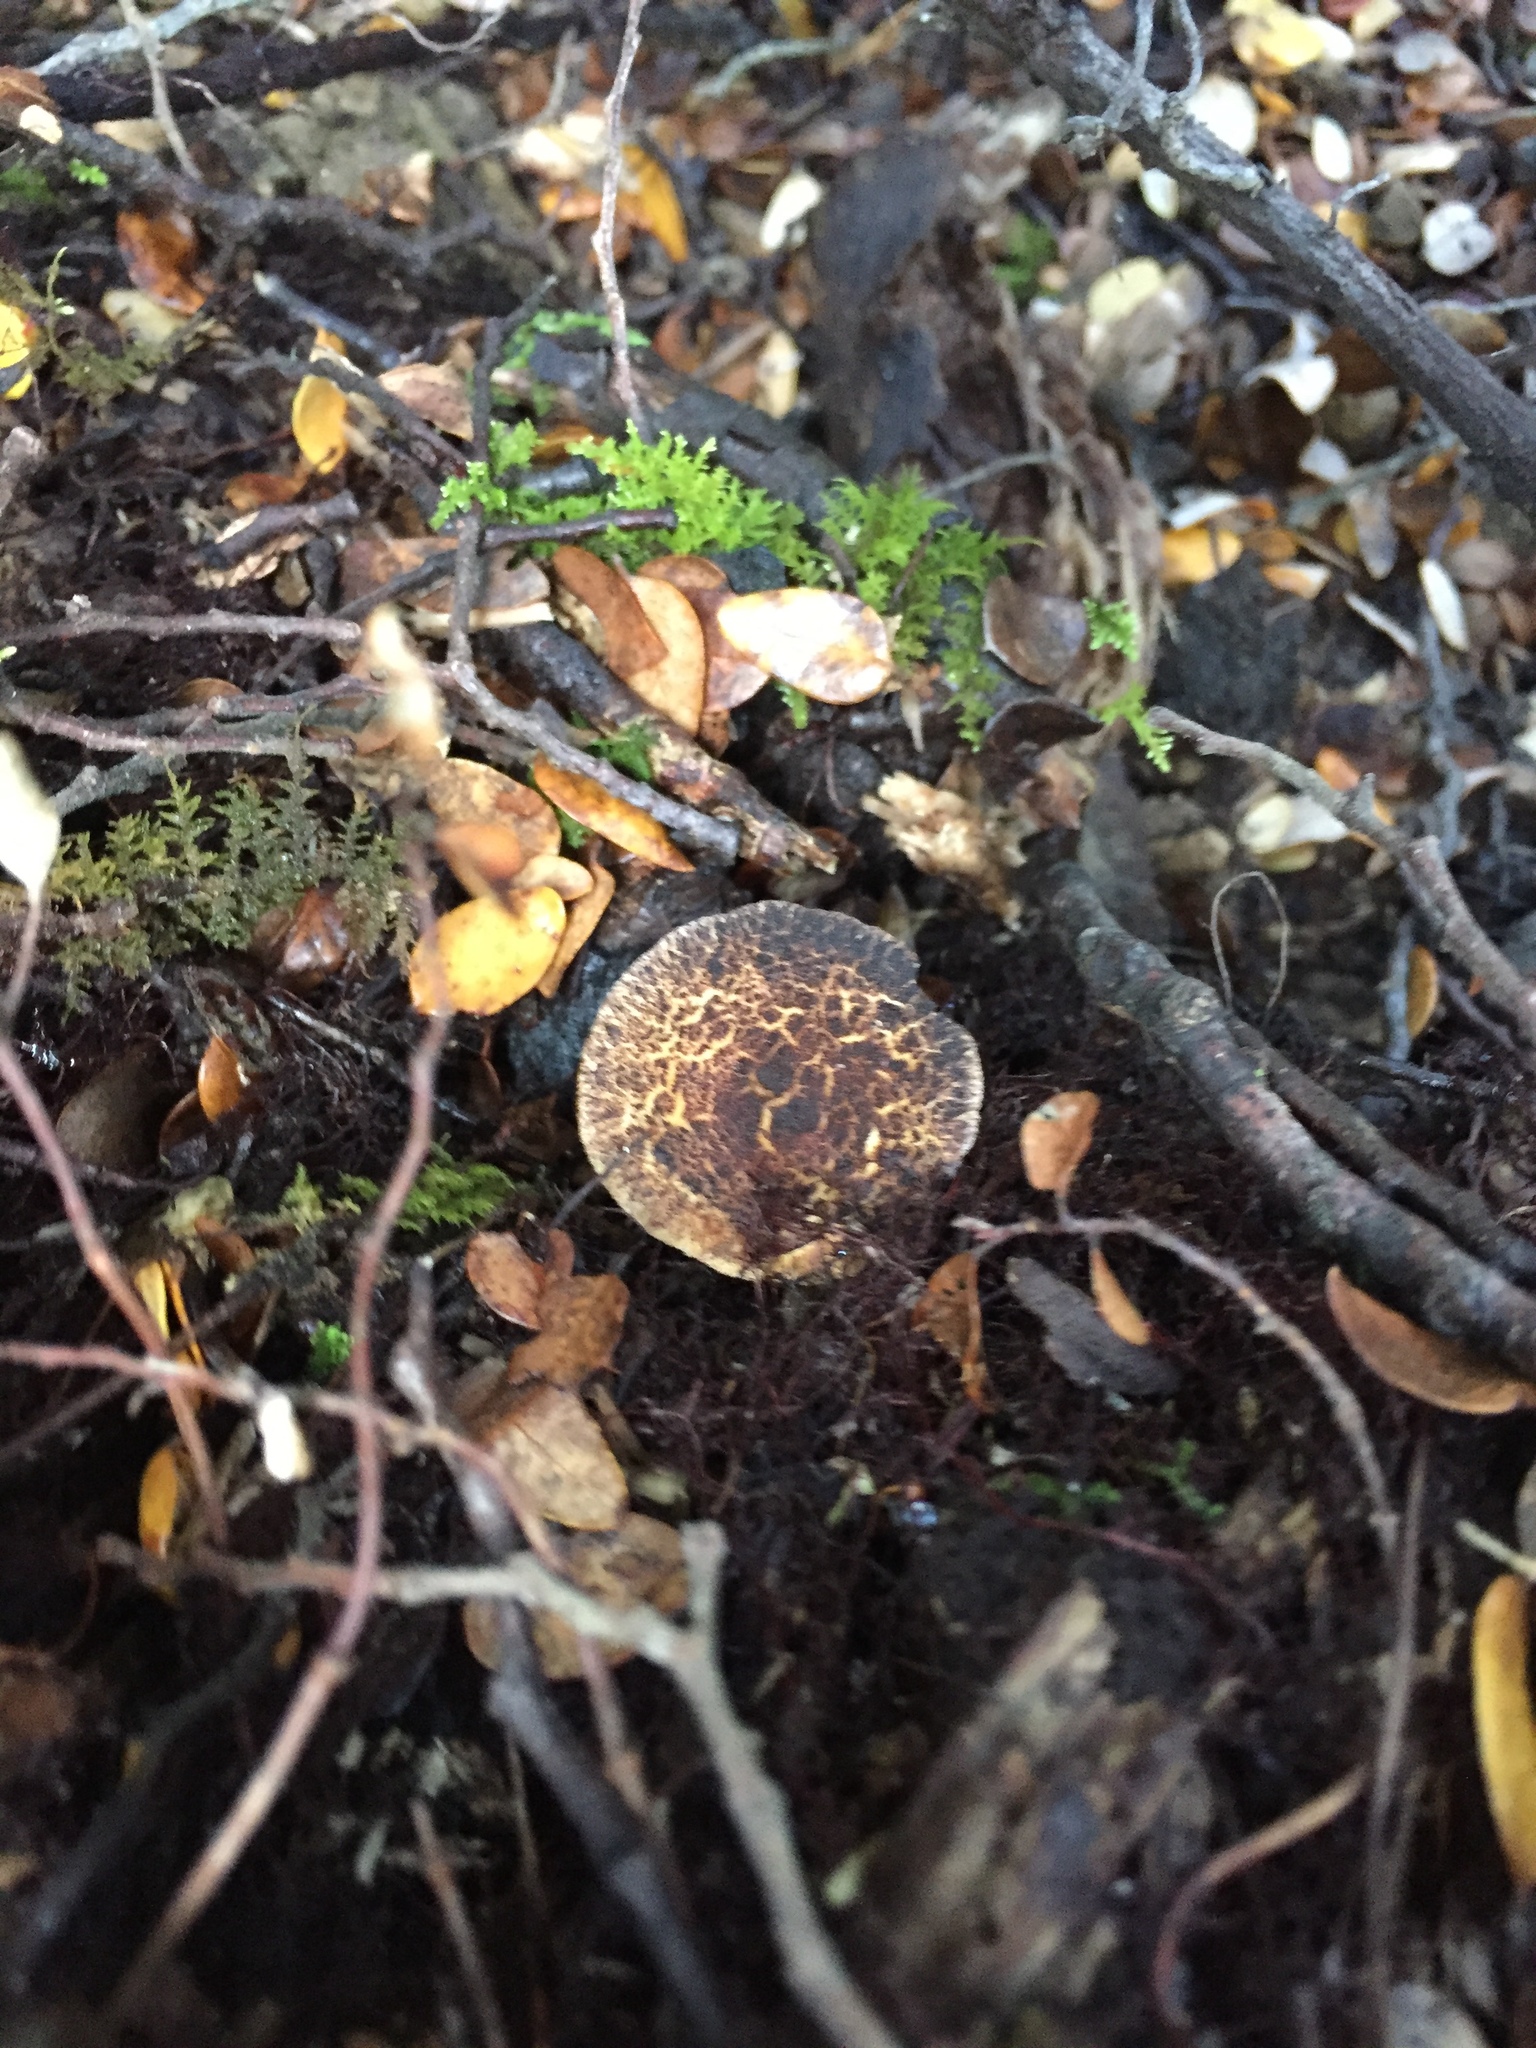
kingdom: Fungi
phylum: Basidiomycota
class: Agaricomycetes
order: Boletales
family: Serpulaceae
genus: Austropaxillus
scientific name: Austropaxillus squarrosus
